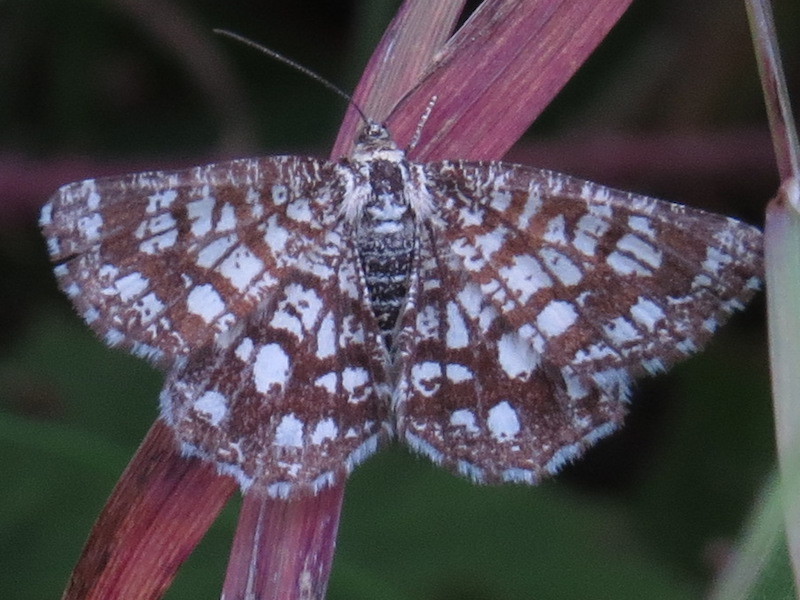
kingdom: Animalia
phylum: Arthropoda
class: Insecta
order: Lepidoptera
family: Geometridae
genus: Chiasmia
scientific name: Chiasmia clathrata
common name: Latticed heath
